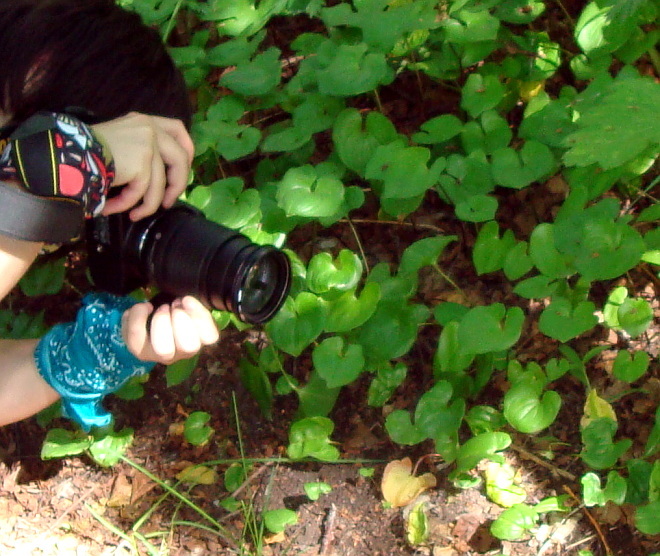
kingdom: Plantae
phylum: Tracheophyta
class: Liliopsida
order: Asparagales
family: Asparagaceae
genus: Maianthemum
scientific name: Maianthemum dilatatum
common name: False lily-of-the-valley
